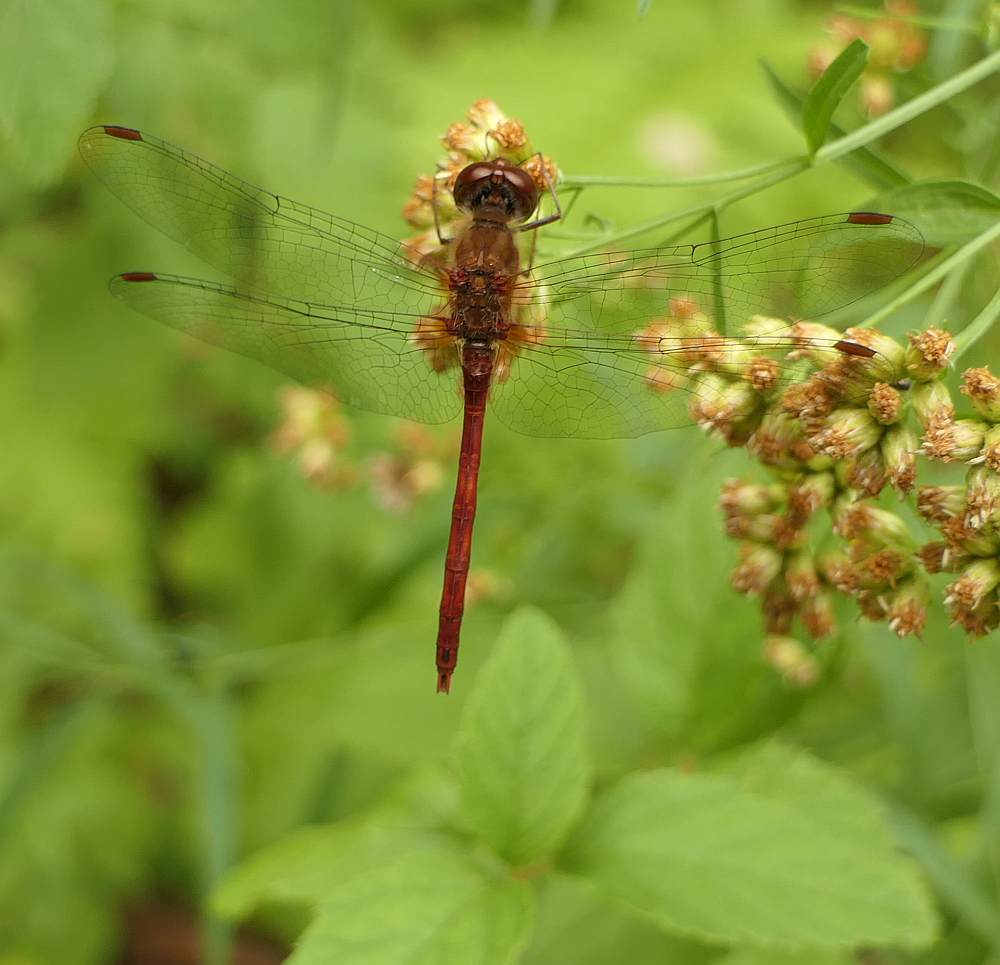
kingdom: Animalia
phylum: Arthropoda
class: Insecta
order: Odonata
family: Libellulidae
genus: Sympetrum
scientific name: Sympetrum vicinum
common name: Autumn meadowhawk
